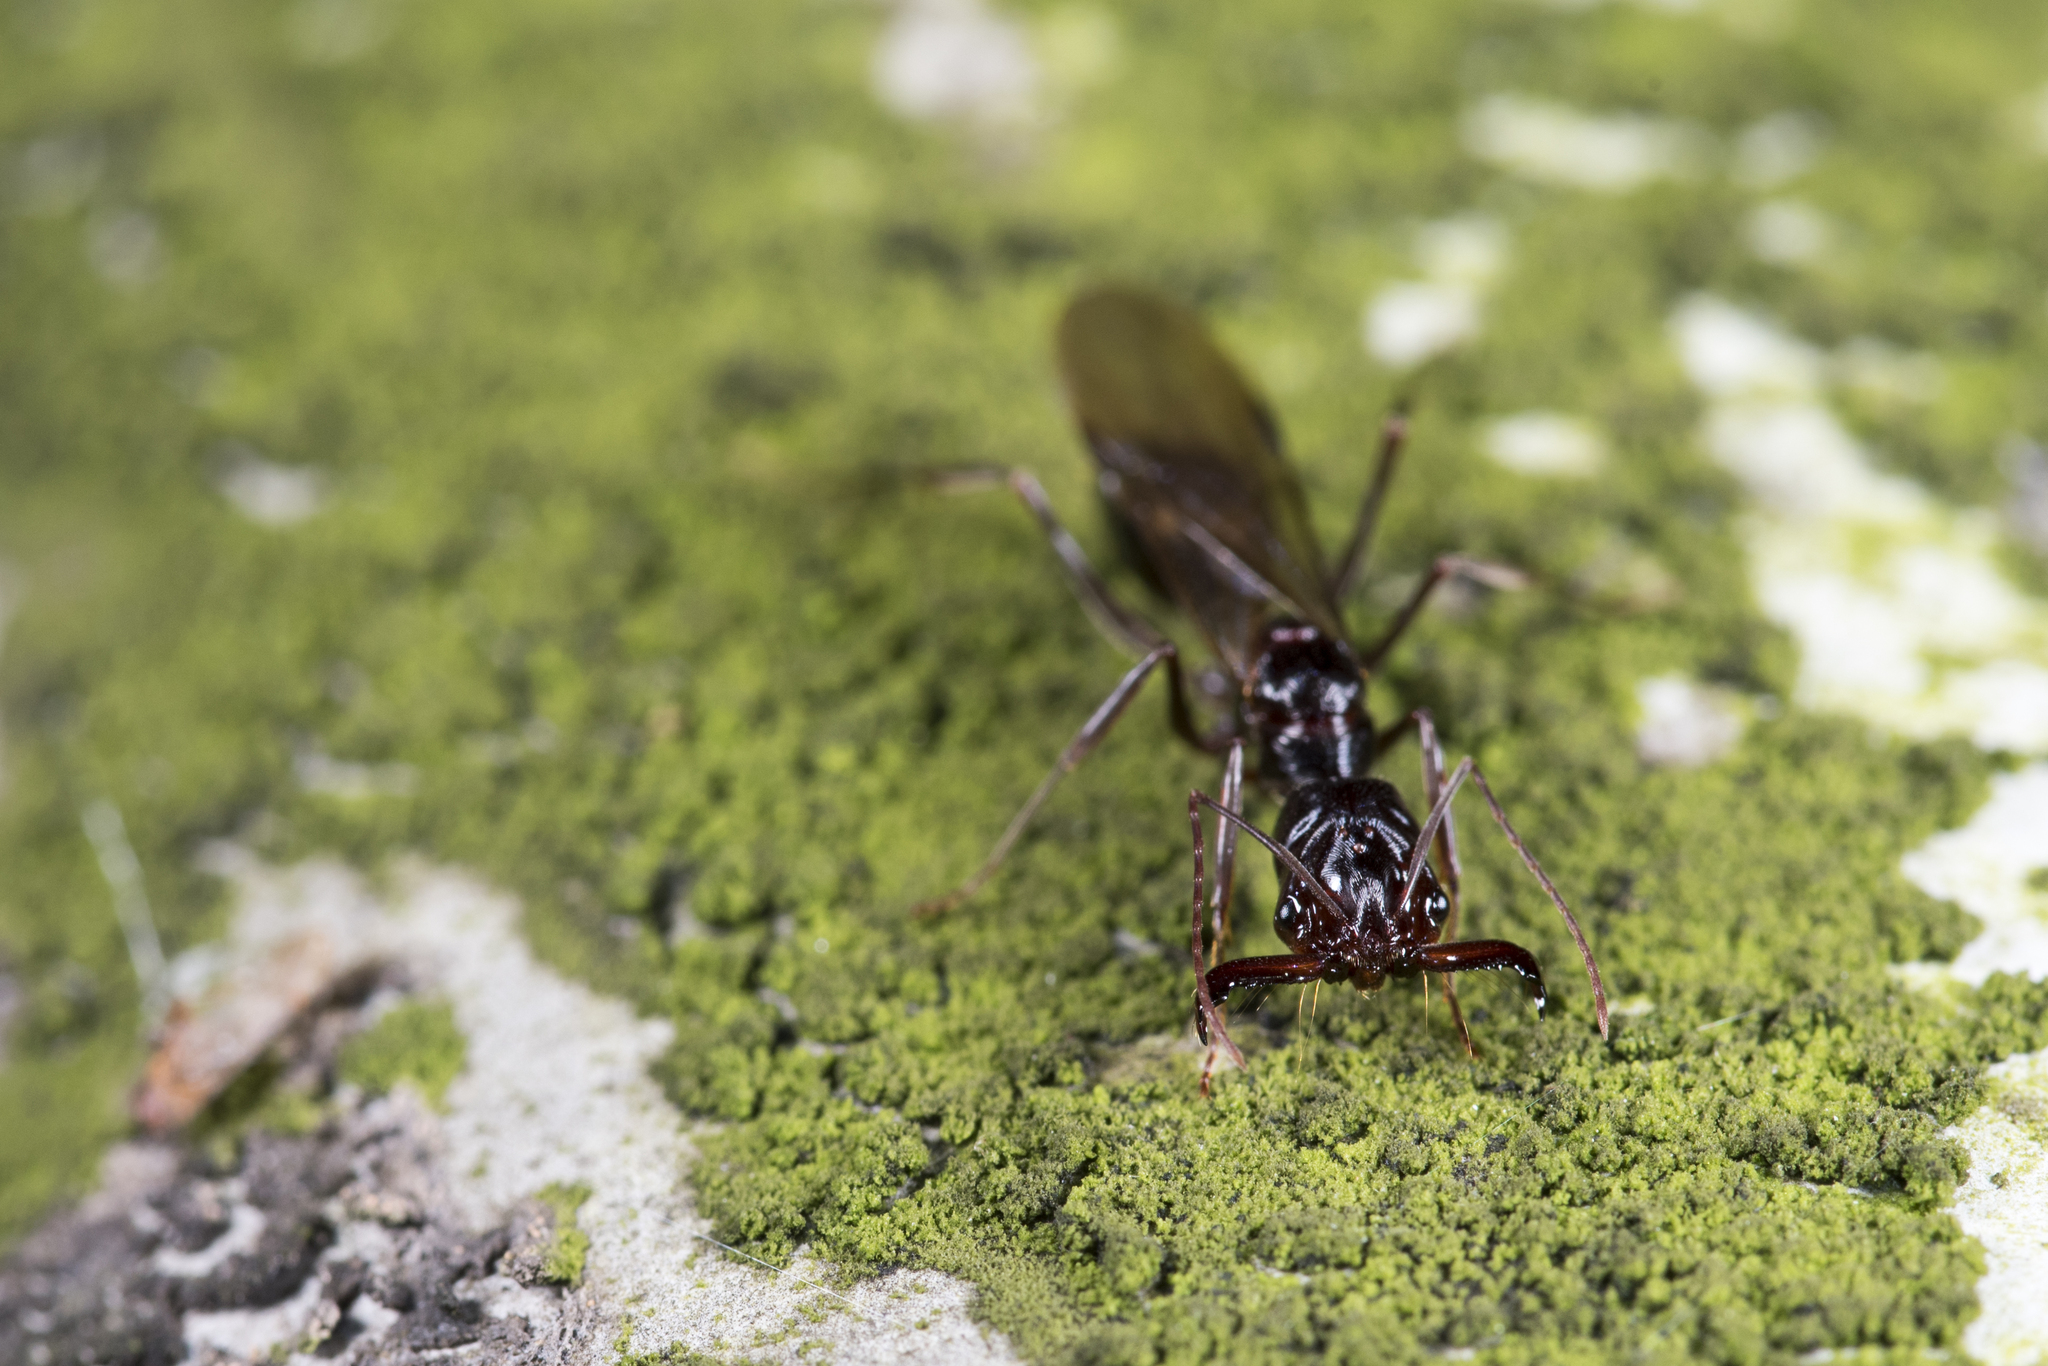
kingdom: Animalia
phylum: Arthropoda
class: Insecta
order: Hymenoptera
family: Formicidae
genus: Odontomachus
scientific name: Odontomachus monticola
